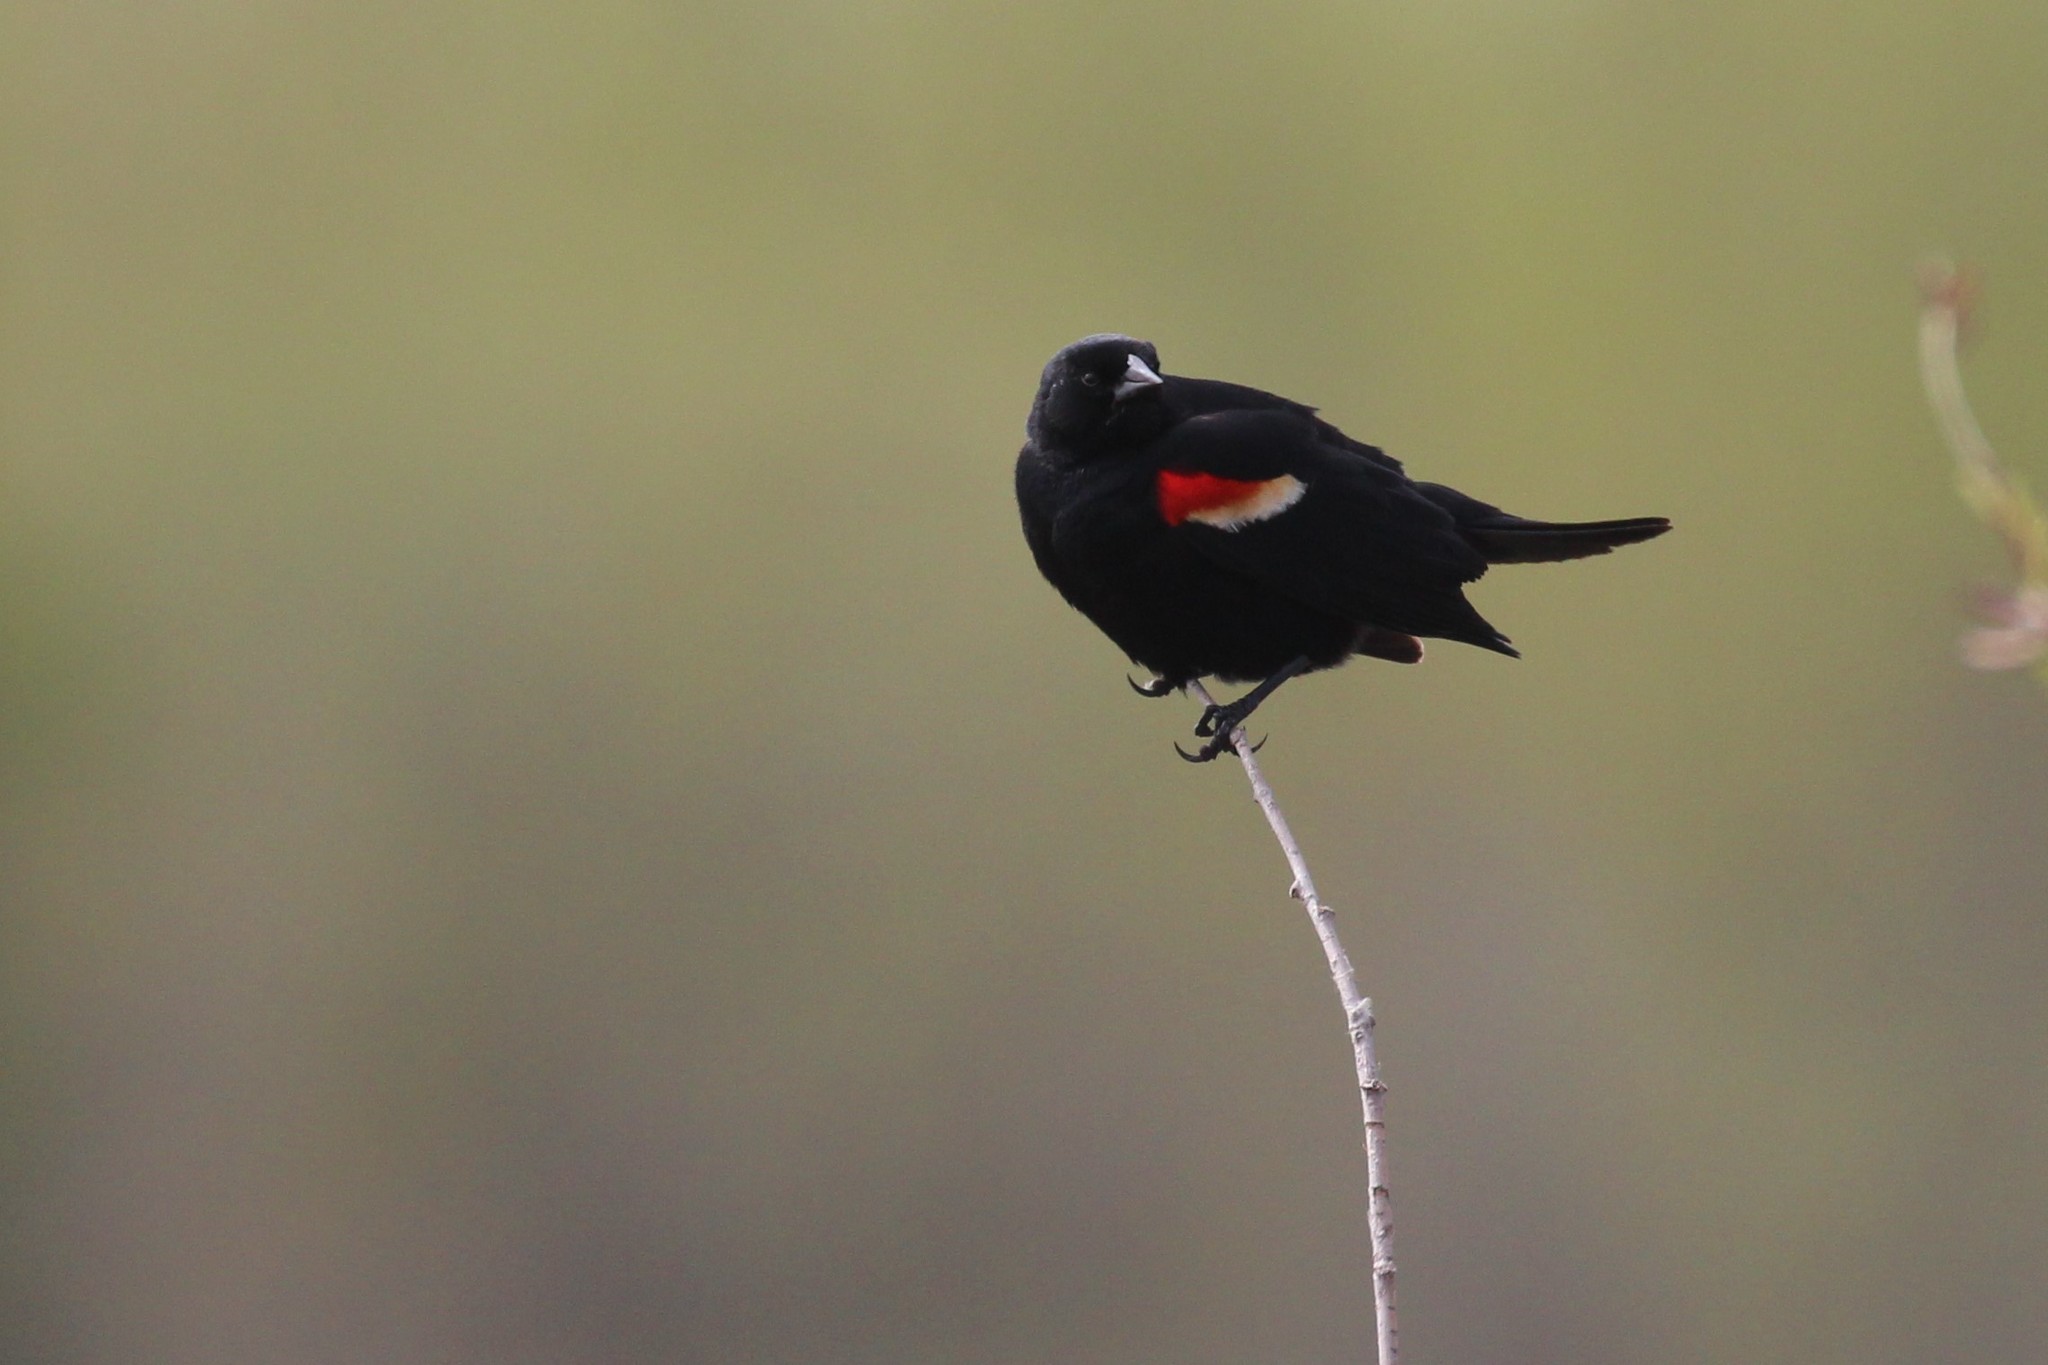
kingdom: Animalia
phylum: Chordata
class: Aves
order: Passeriformes
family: Icteridae
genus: Agelaius
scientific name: Agelaius phoeniceus
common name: Red-winged blackbird
